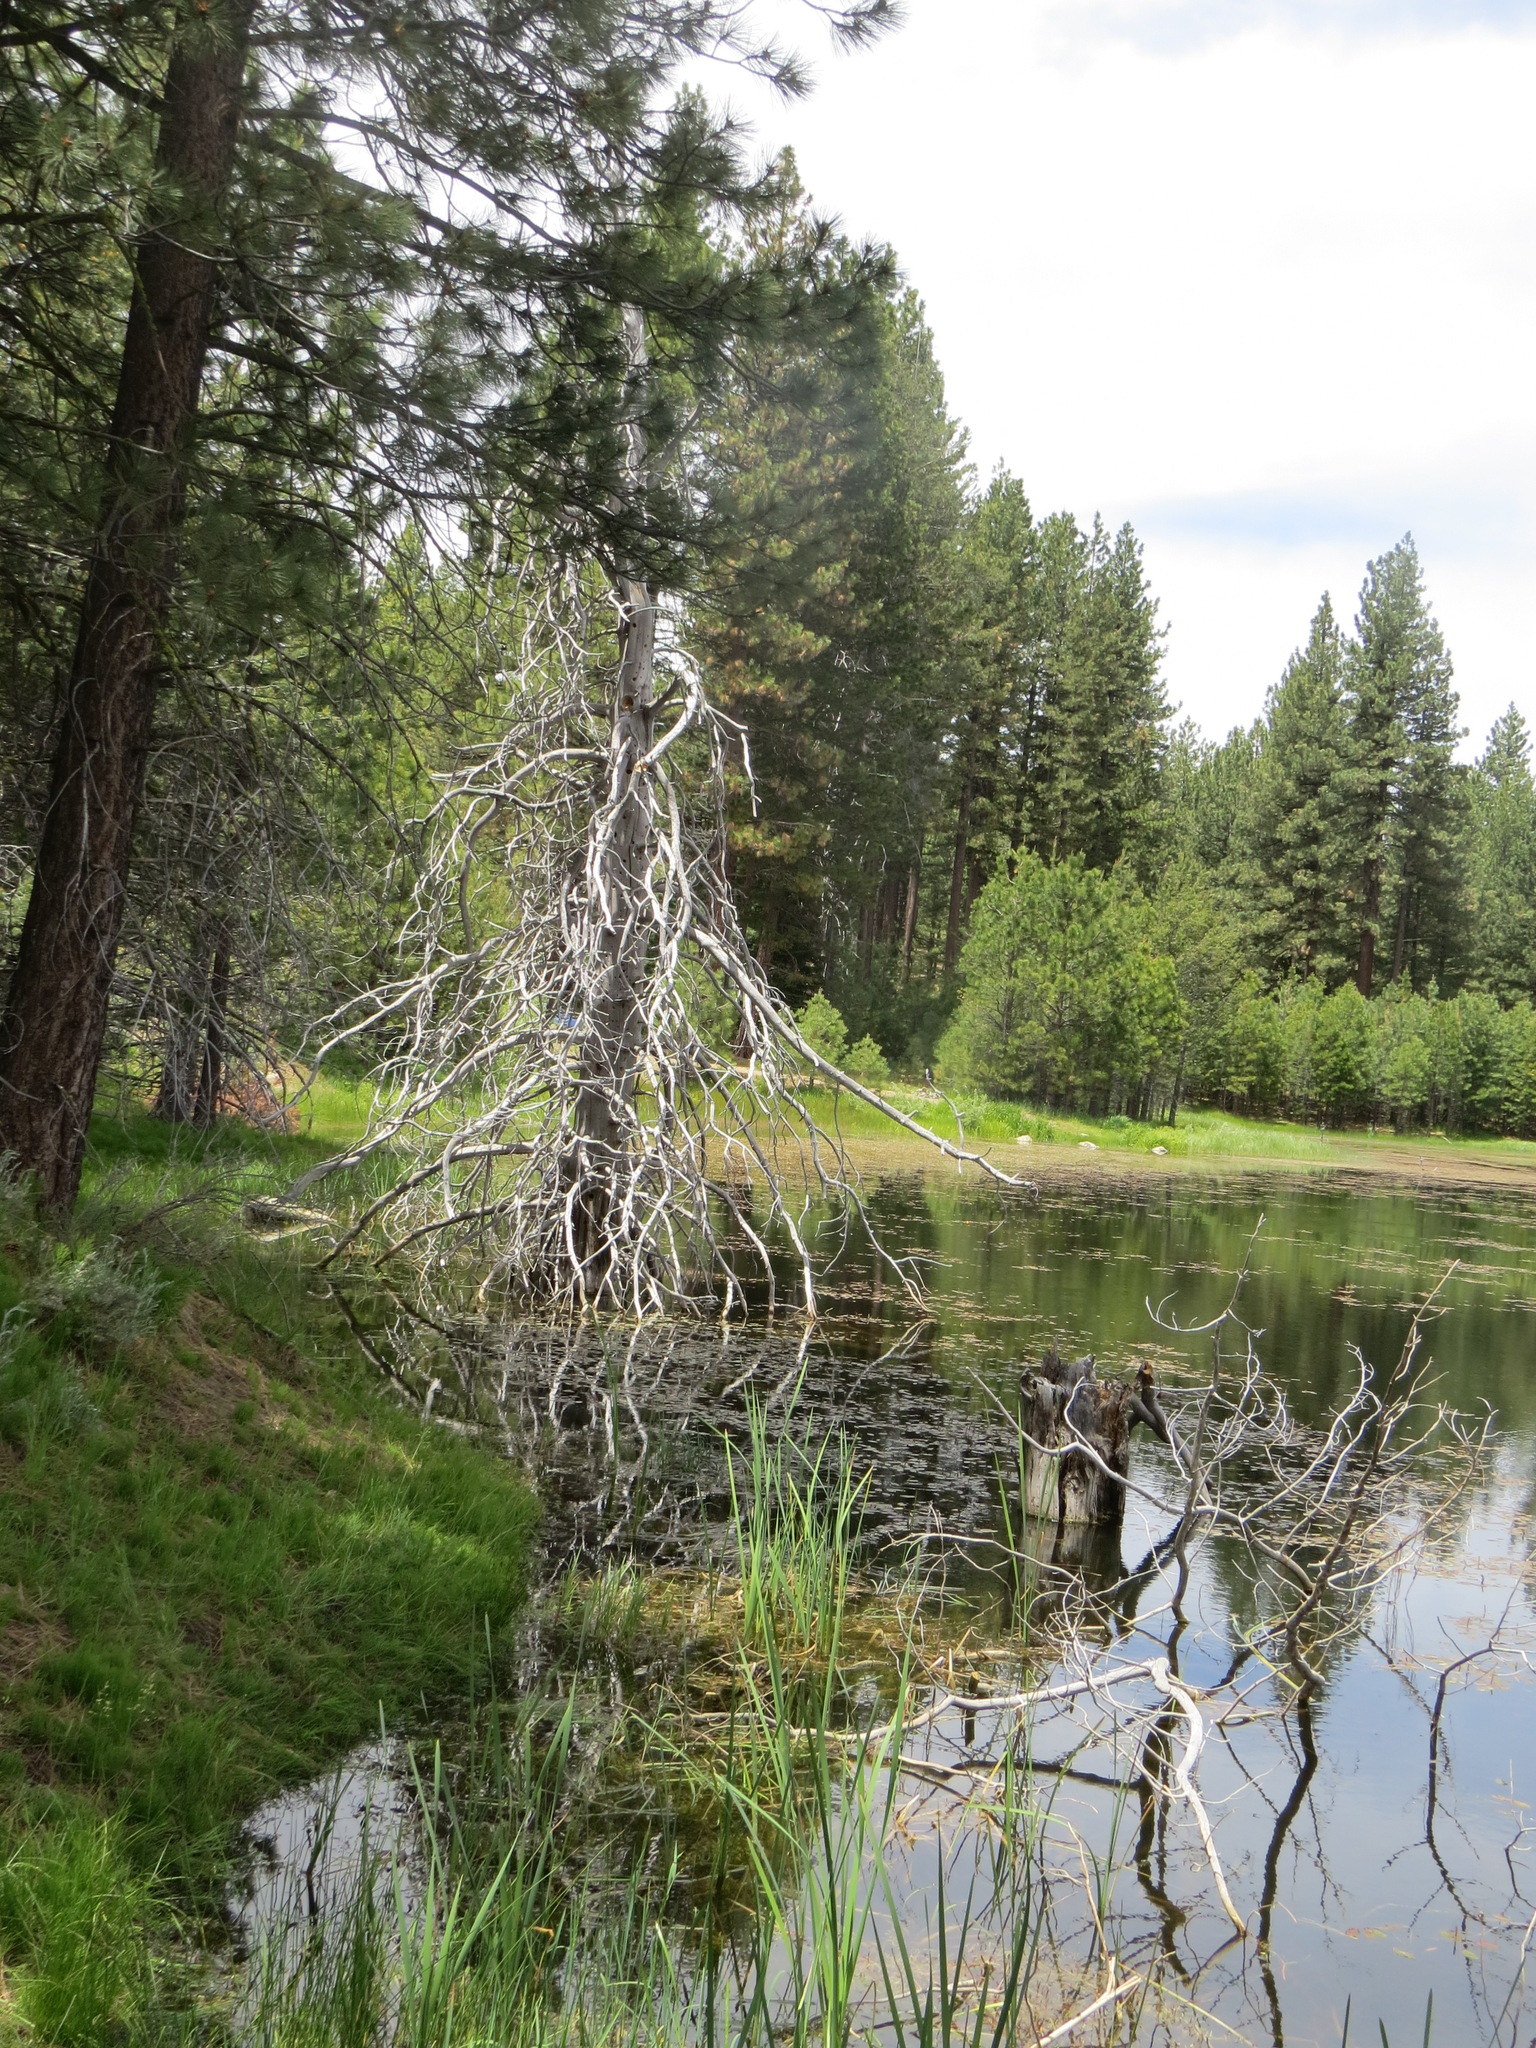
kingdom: Animalia
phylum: Chordata
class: Aves
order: Passeriformes
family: Hirundinidae
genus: Tachycineta
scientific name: Tachycineta bicolor
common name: Tree swallow
